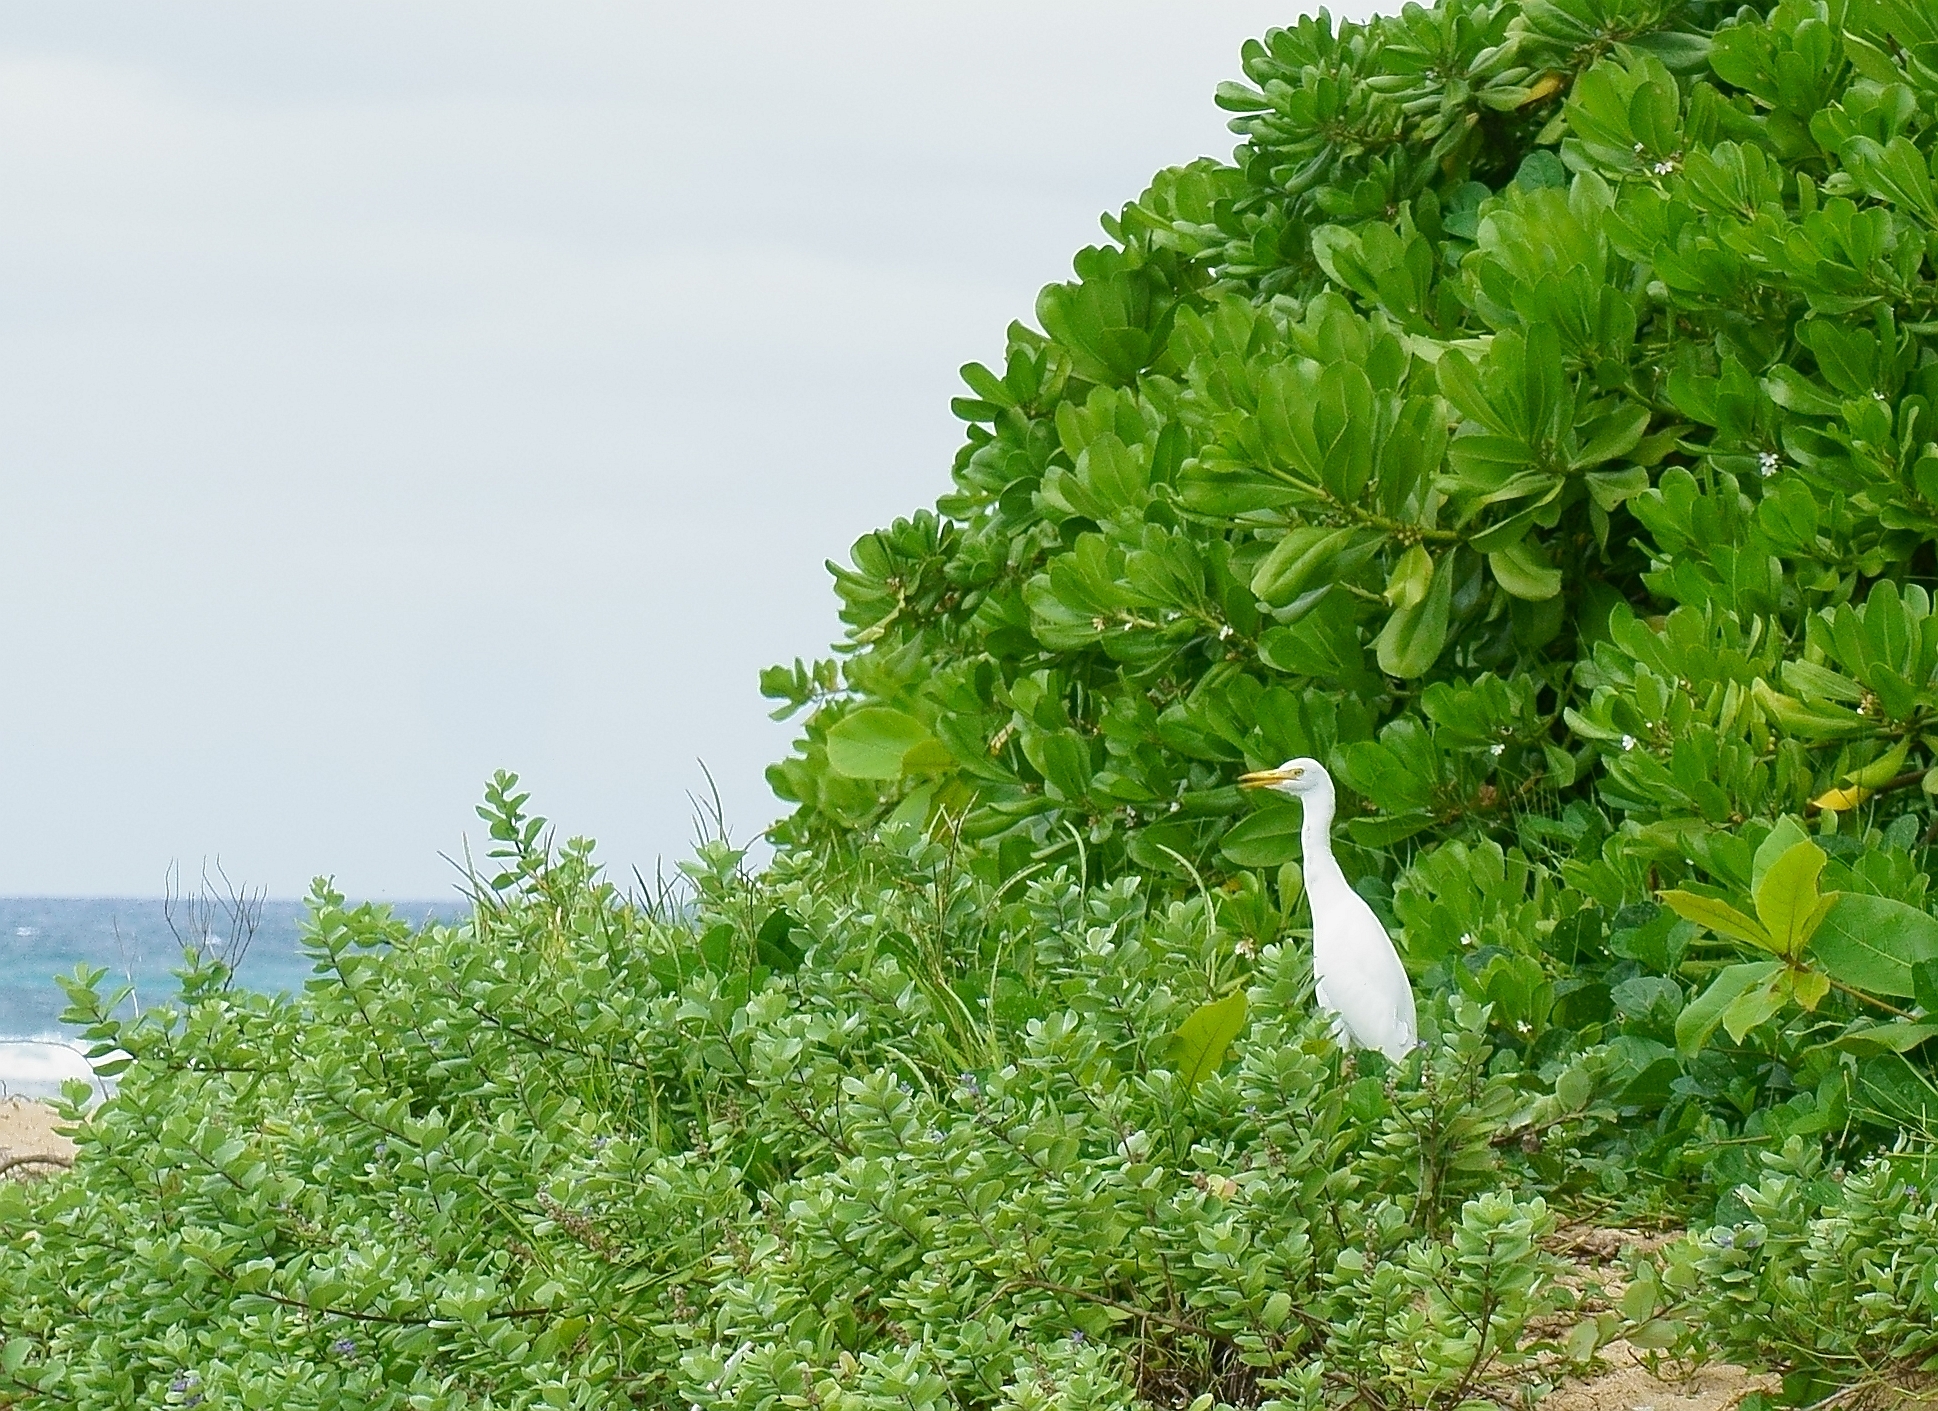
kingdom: Animalia
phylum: Chordata
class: Aves
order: Pelecaniformes
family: Ardeidae
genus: Bubulcus
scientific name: Bubulcus ibis
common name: Cattle egret
